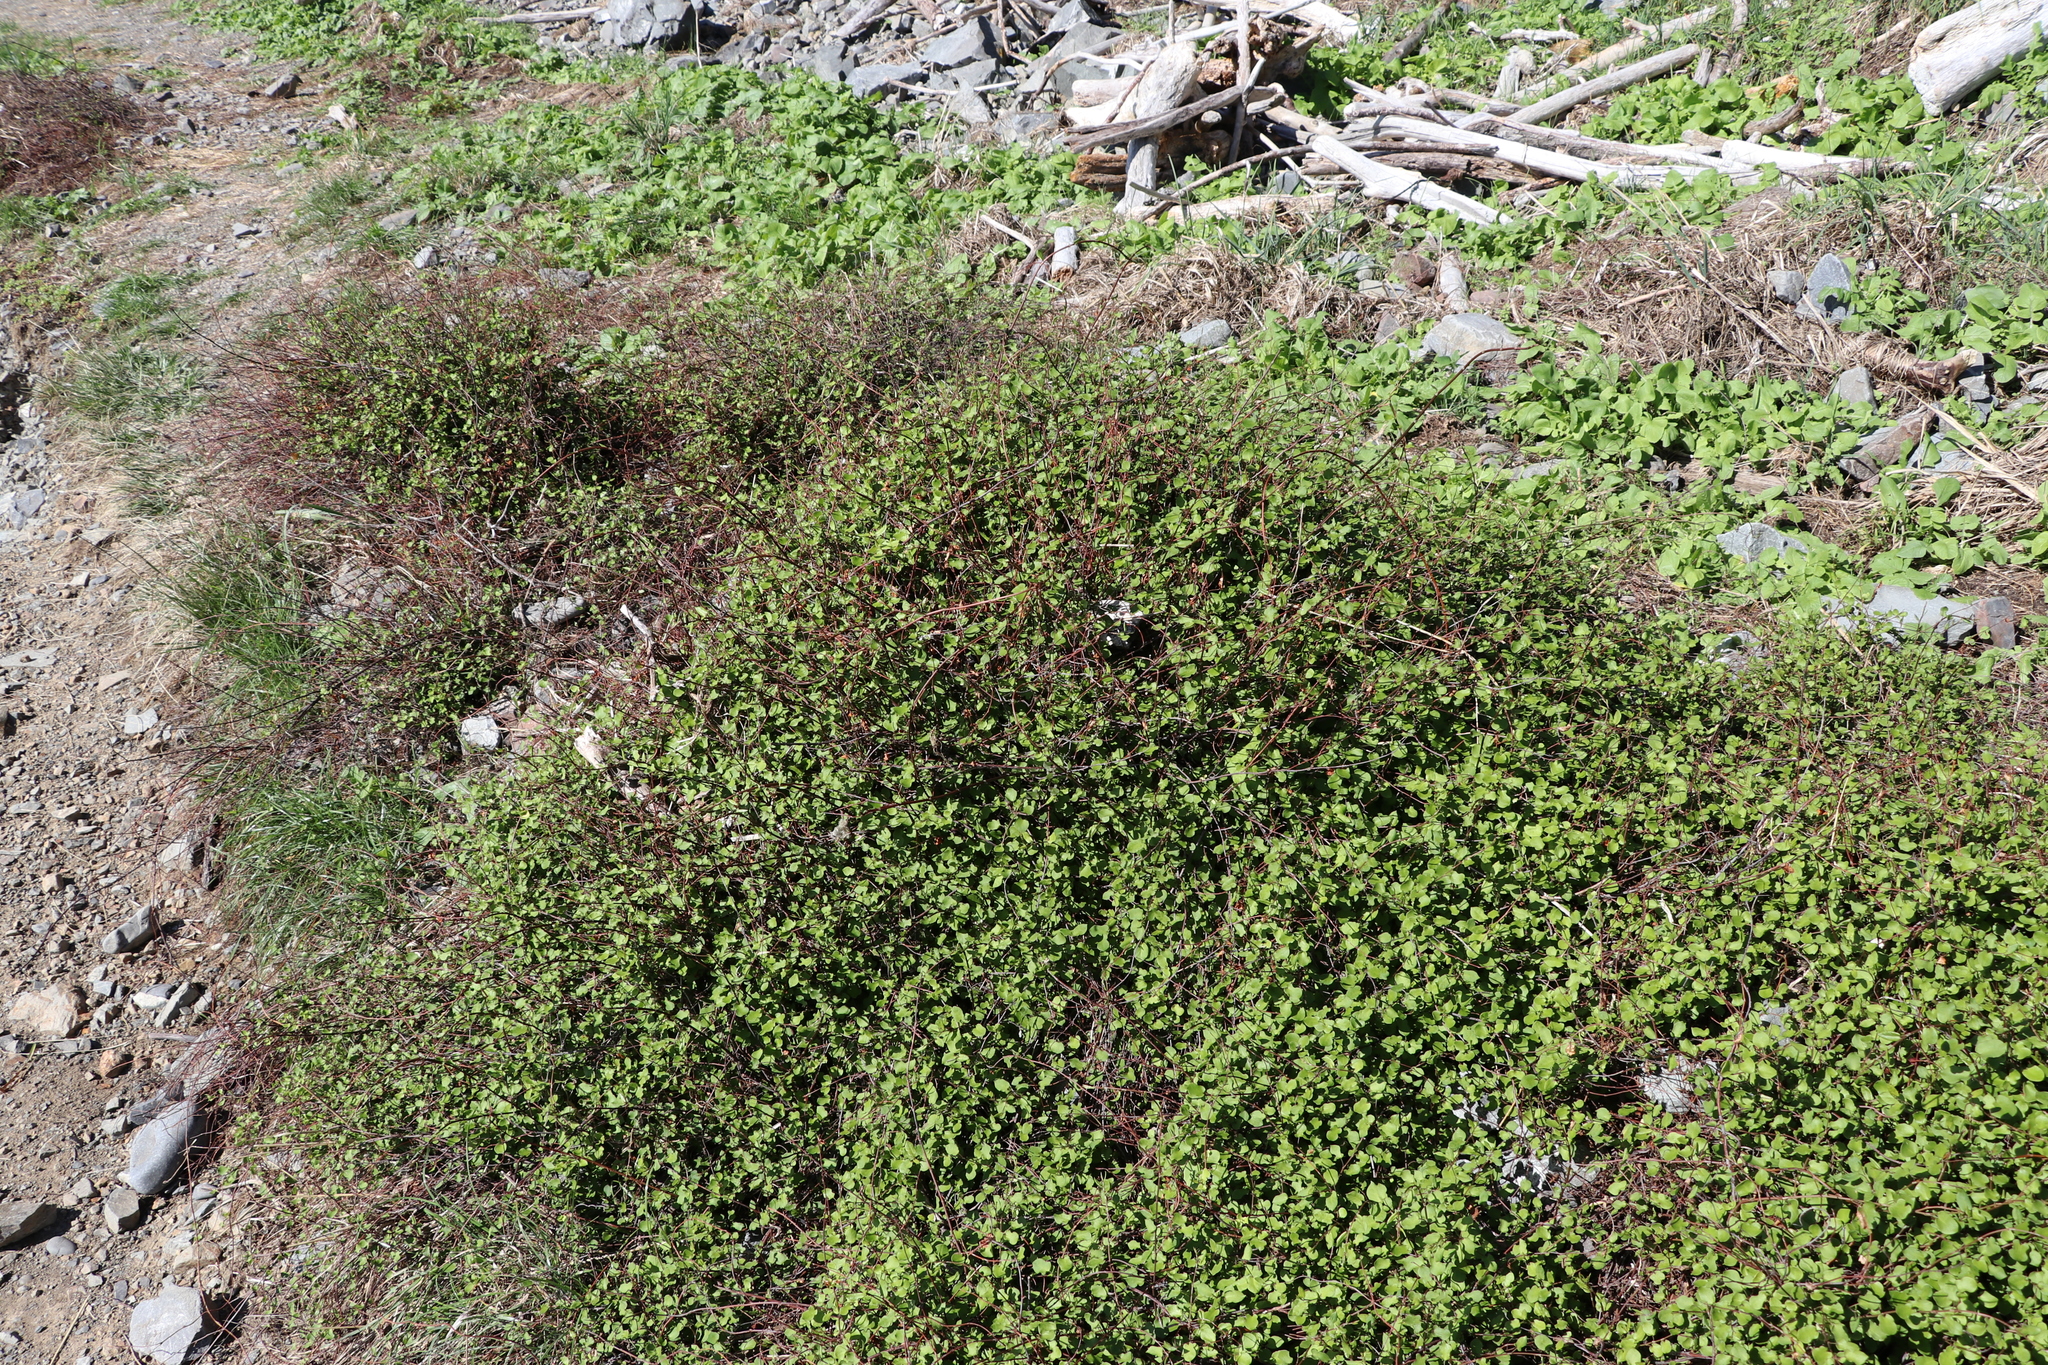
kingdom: Plantae
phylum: Tracheophyta
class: Magnoliopsida
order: Caryophyllales
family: Polygonaceae
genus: Muehlenbeckia
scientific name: Muehlenbeckia australis
